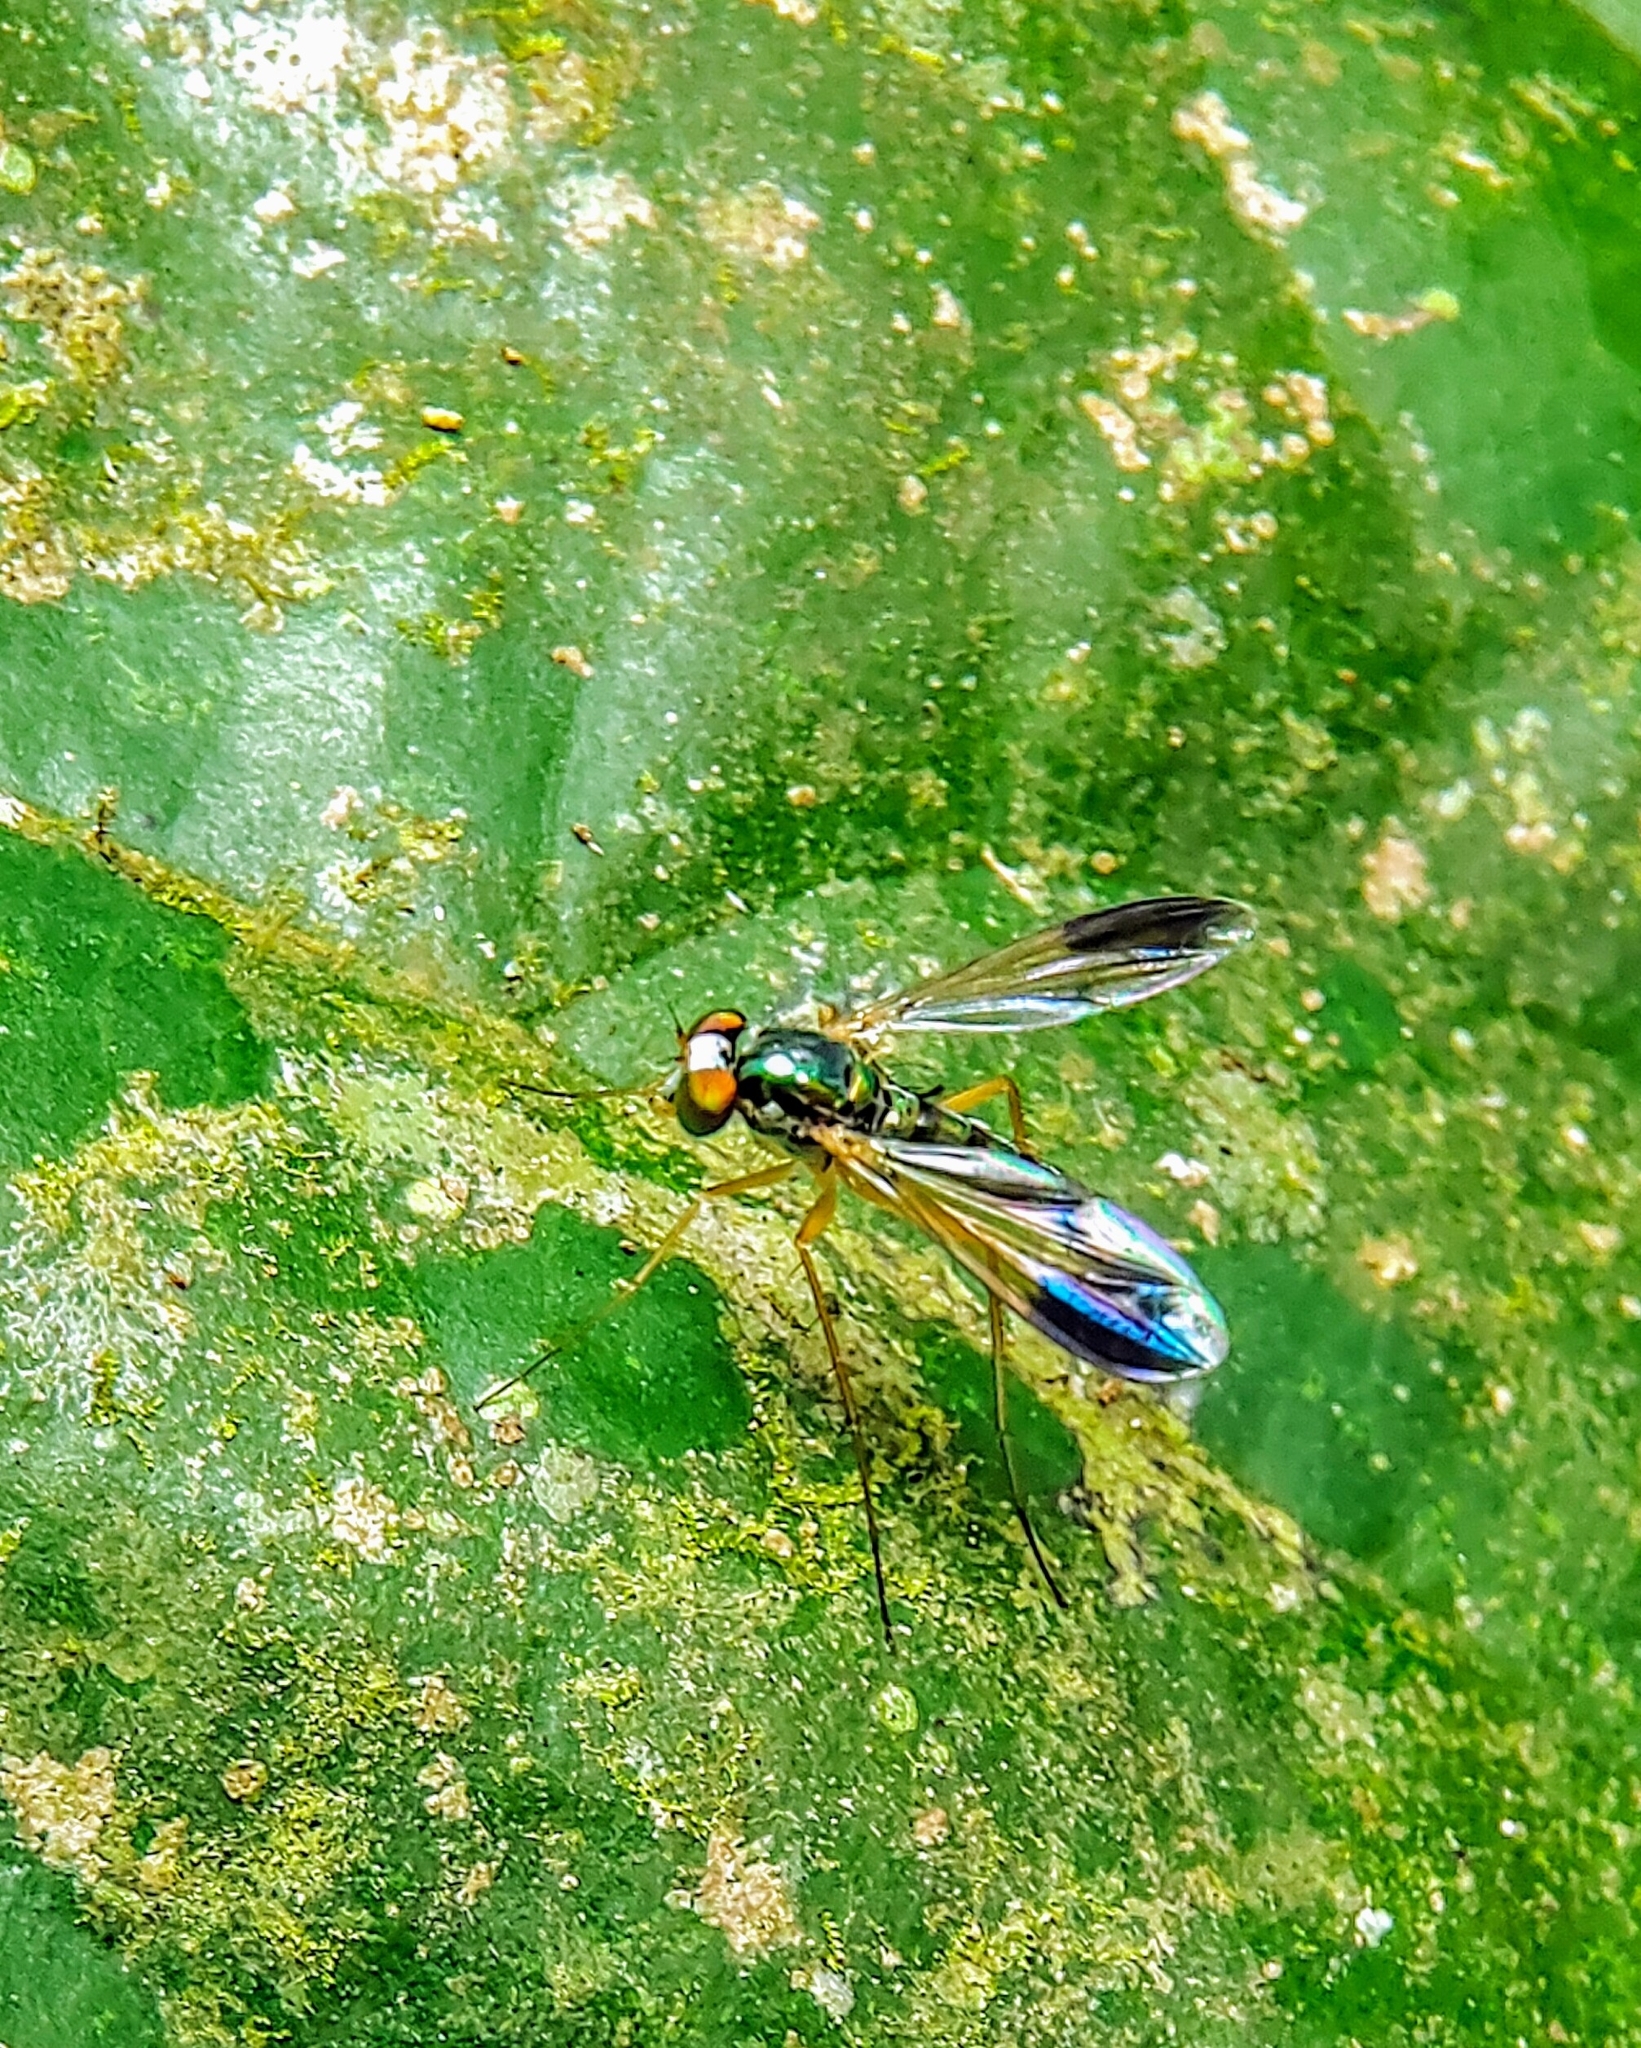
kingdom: Animalia
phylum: Arthropoda
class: Insecta
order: Diptera
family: Dolichopodidae
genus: Plagiozopelma
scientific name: Plagiozopelma lichtwardti
